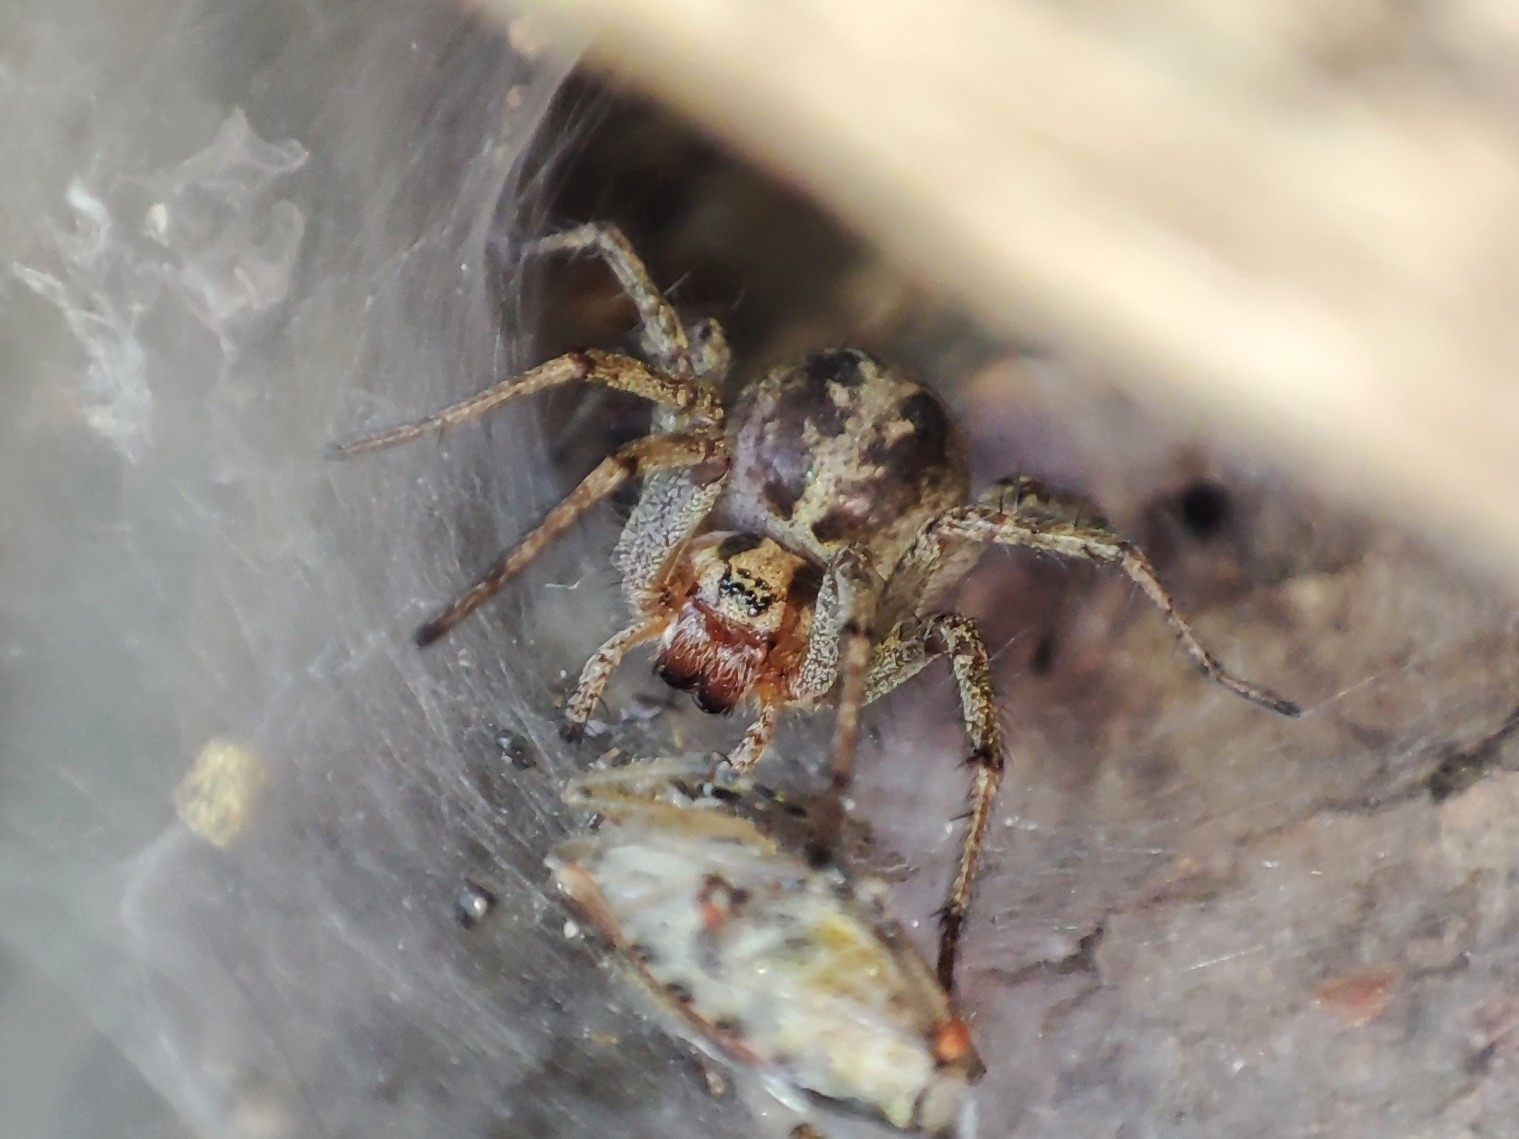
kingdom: Animalia
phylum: Arthropoda
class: Arachnida
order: Araneae
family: Agelenidae
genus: Agelena
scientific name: Agelena labyrinthica
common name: Labyrinth spider
